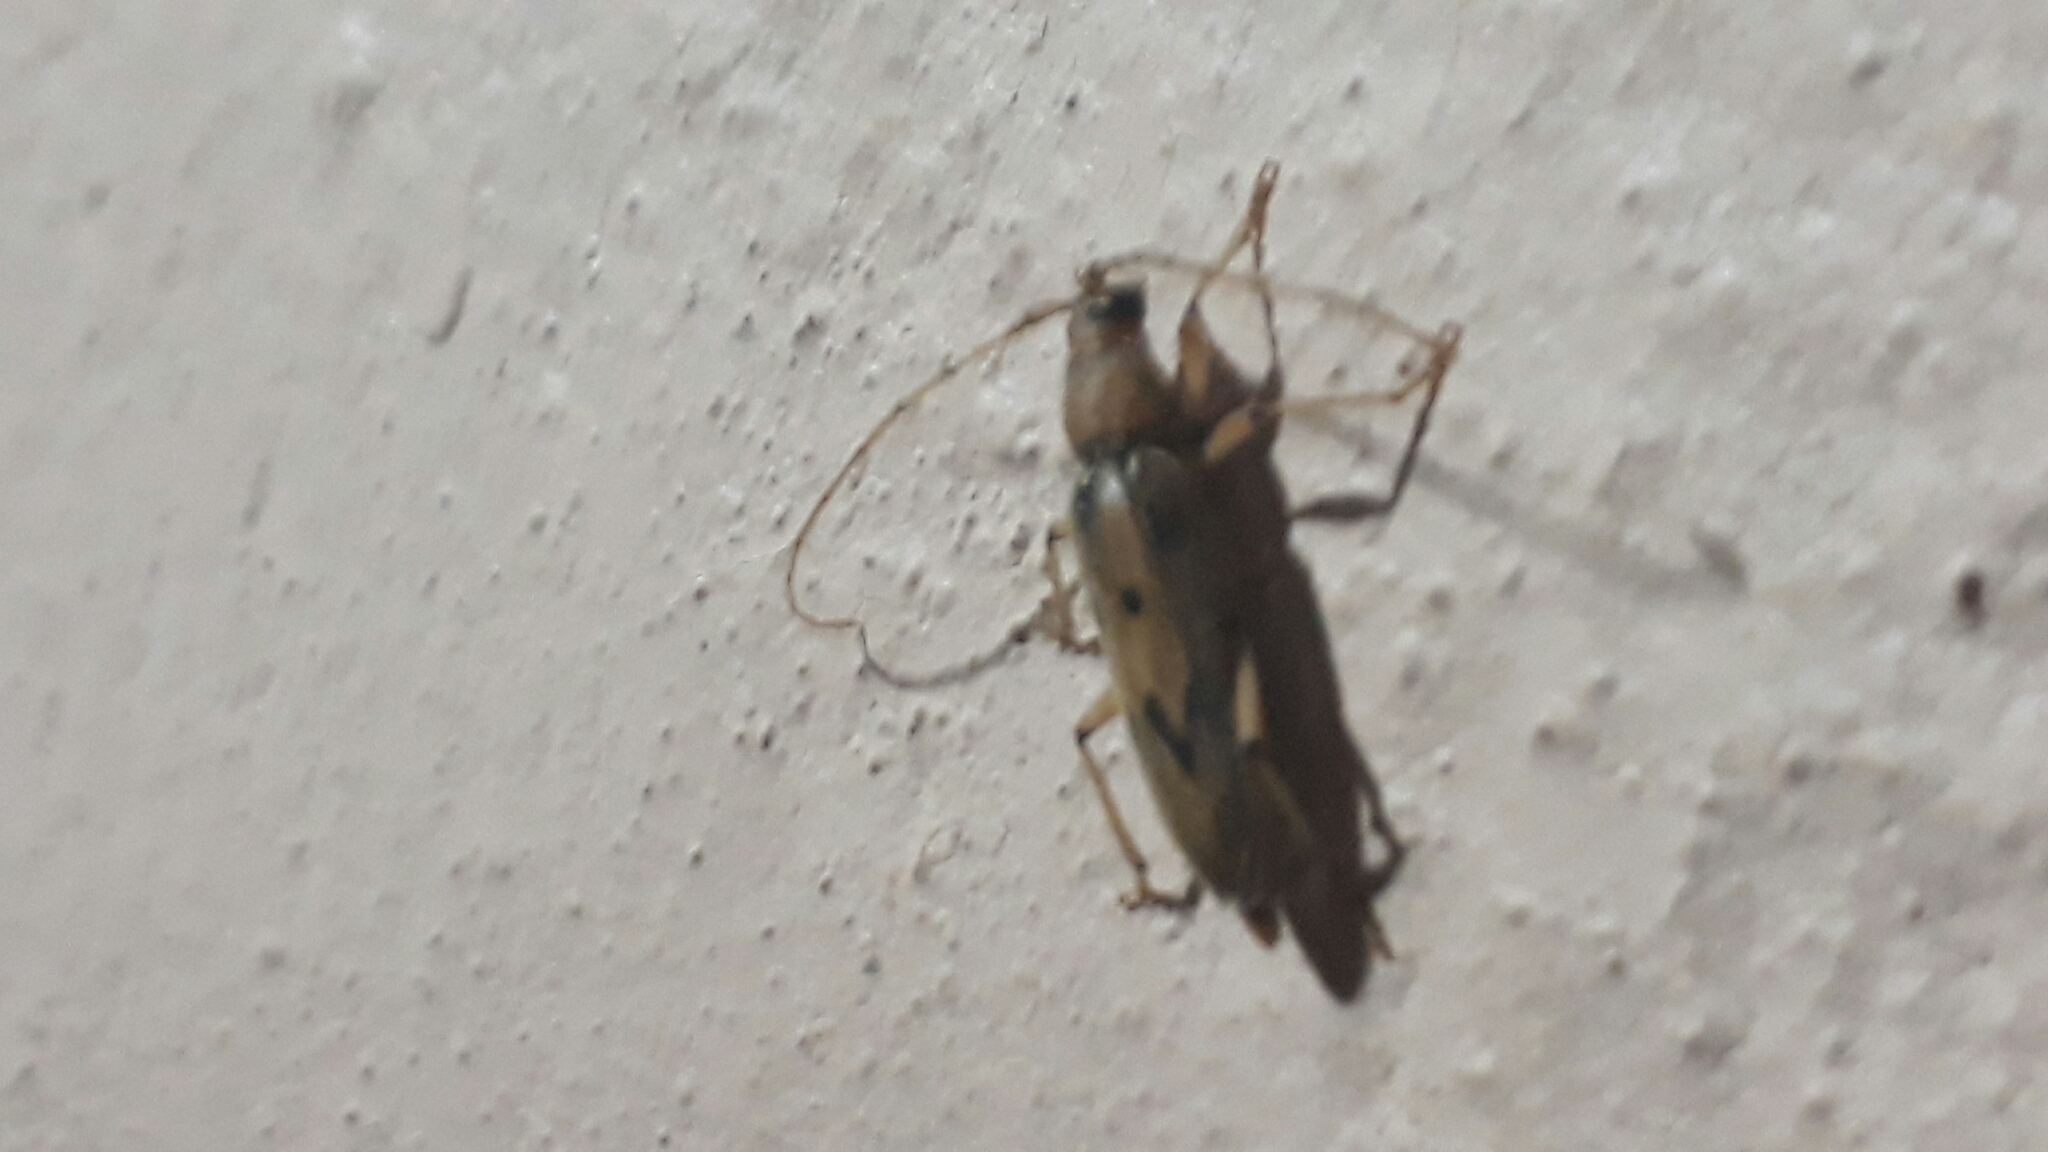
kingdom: Animalia
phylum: Arthropoda
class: Insecta
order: Coleoptera
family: Cerambycidae
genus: Achryson
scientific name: Achryson surinamum
